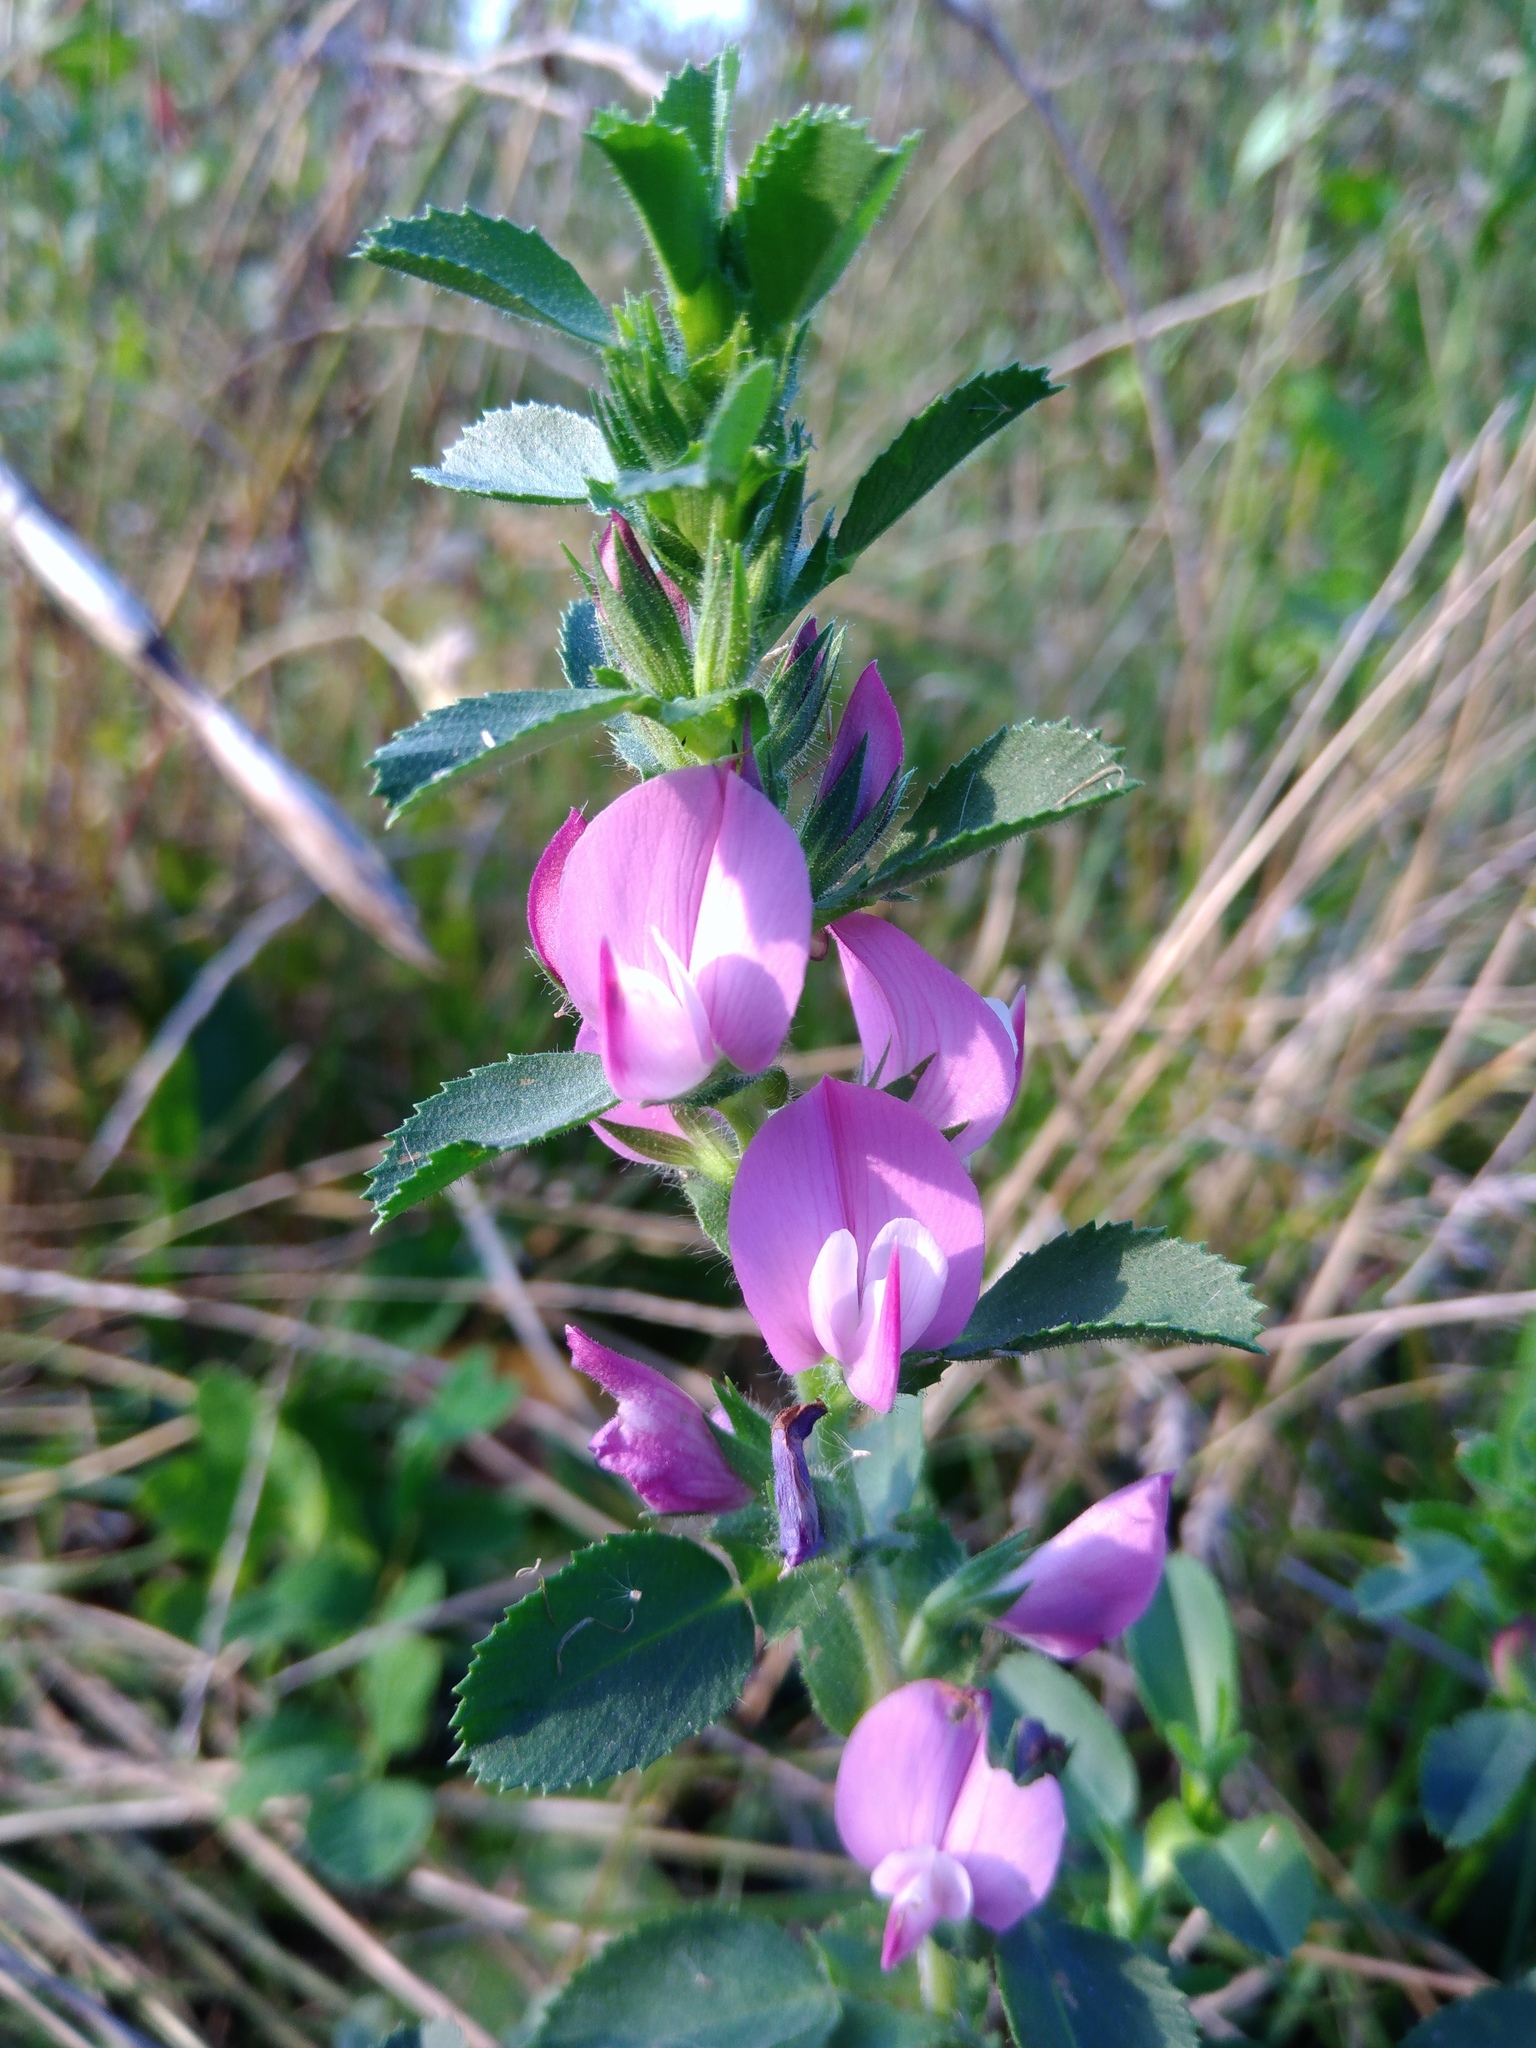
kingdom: Plantae
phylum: Tracheophyta
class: Magnoliopsida
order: Fabales
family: Fabaceae
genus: Ononis
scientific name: Ononis arvensis
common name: Field restharrow
